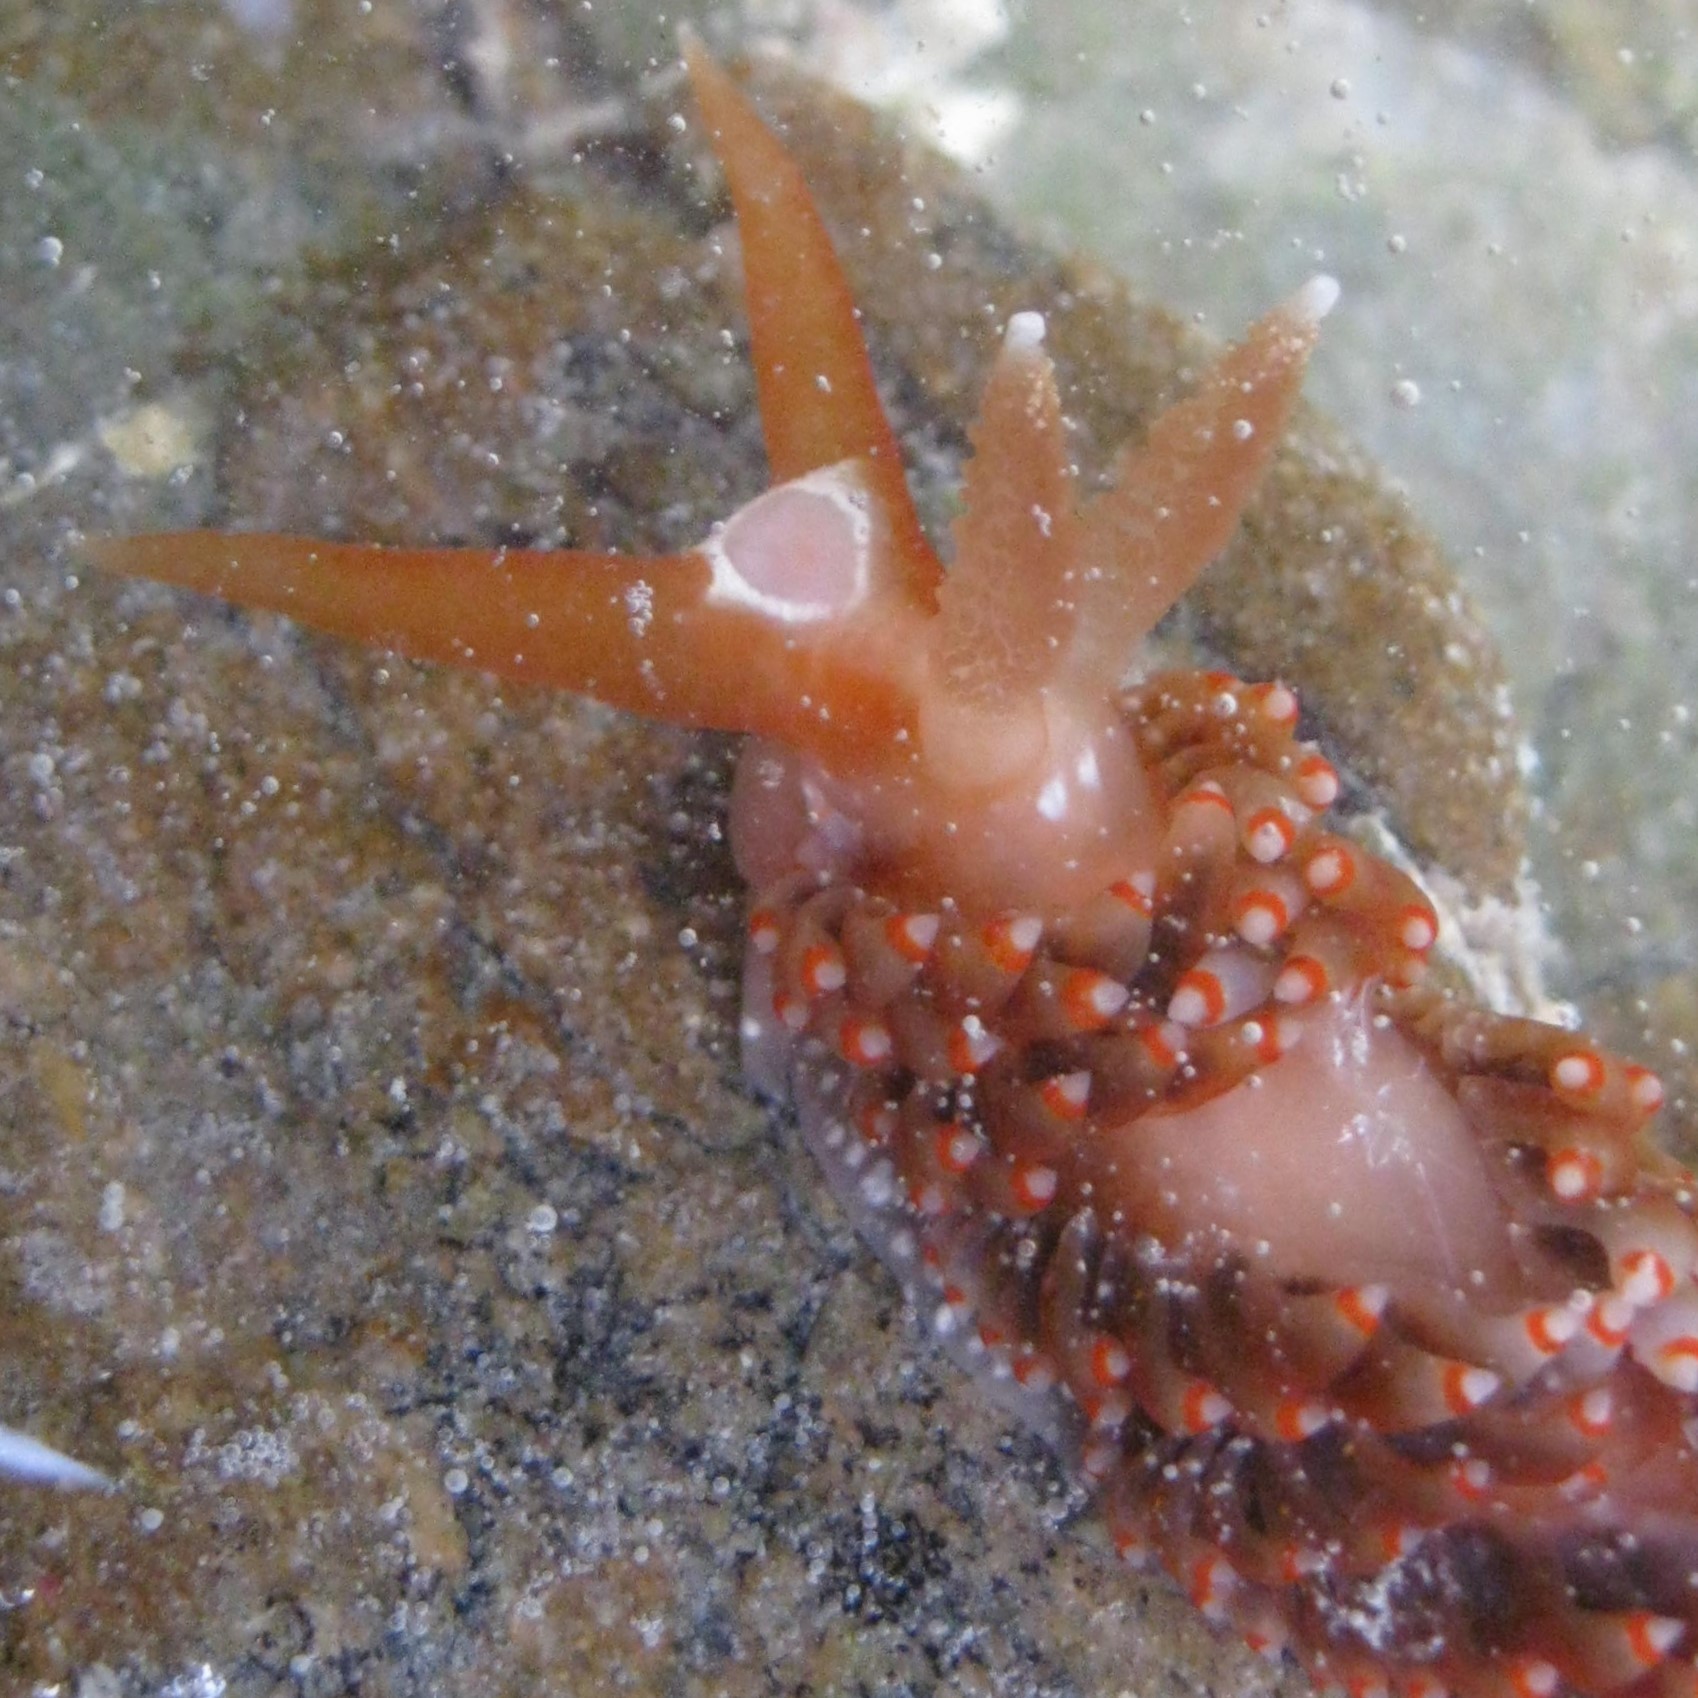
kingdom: Animalia
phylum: Mollusca
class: Gastropoda
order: Nudibranchia
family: Aeolidiidae
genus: Baeolidia
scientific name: Baeolidia australis
